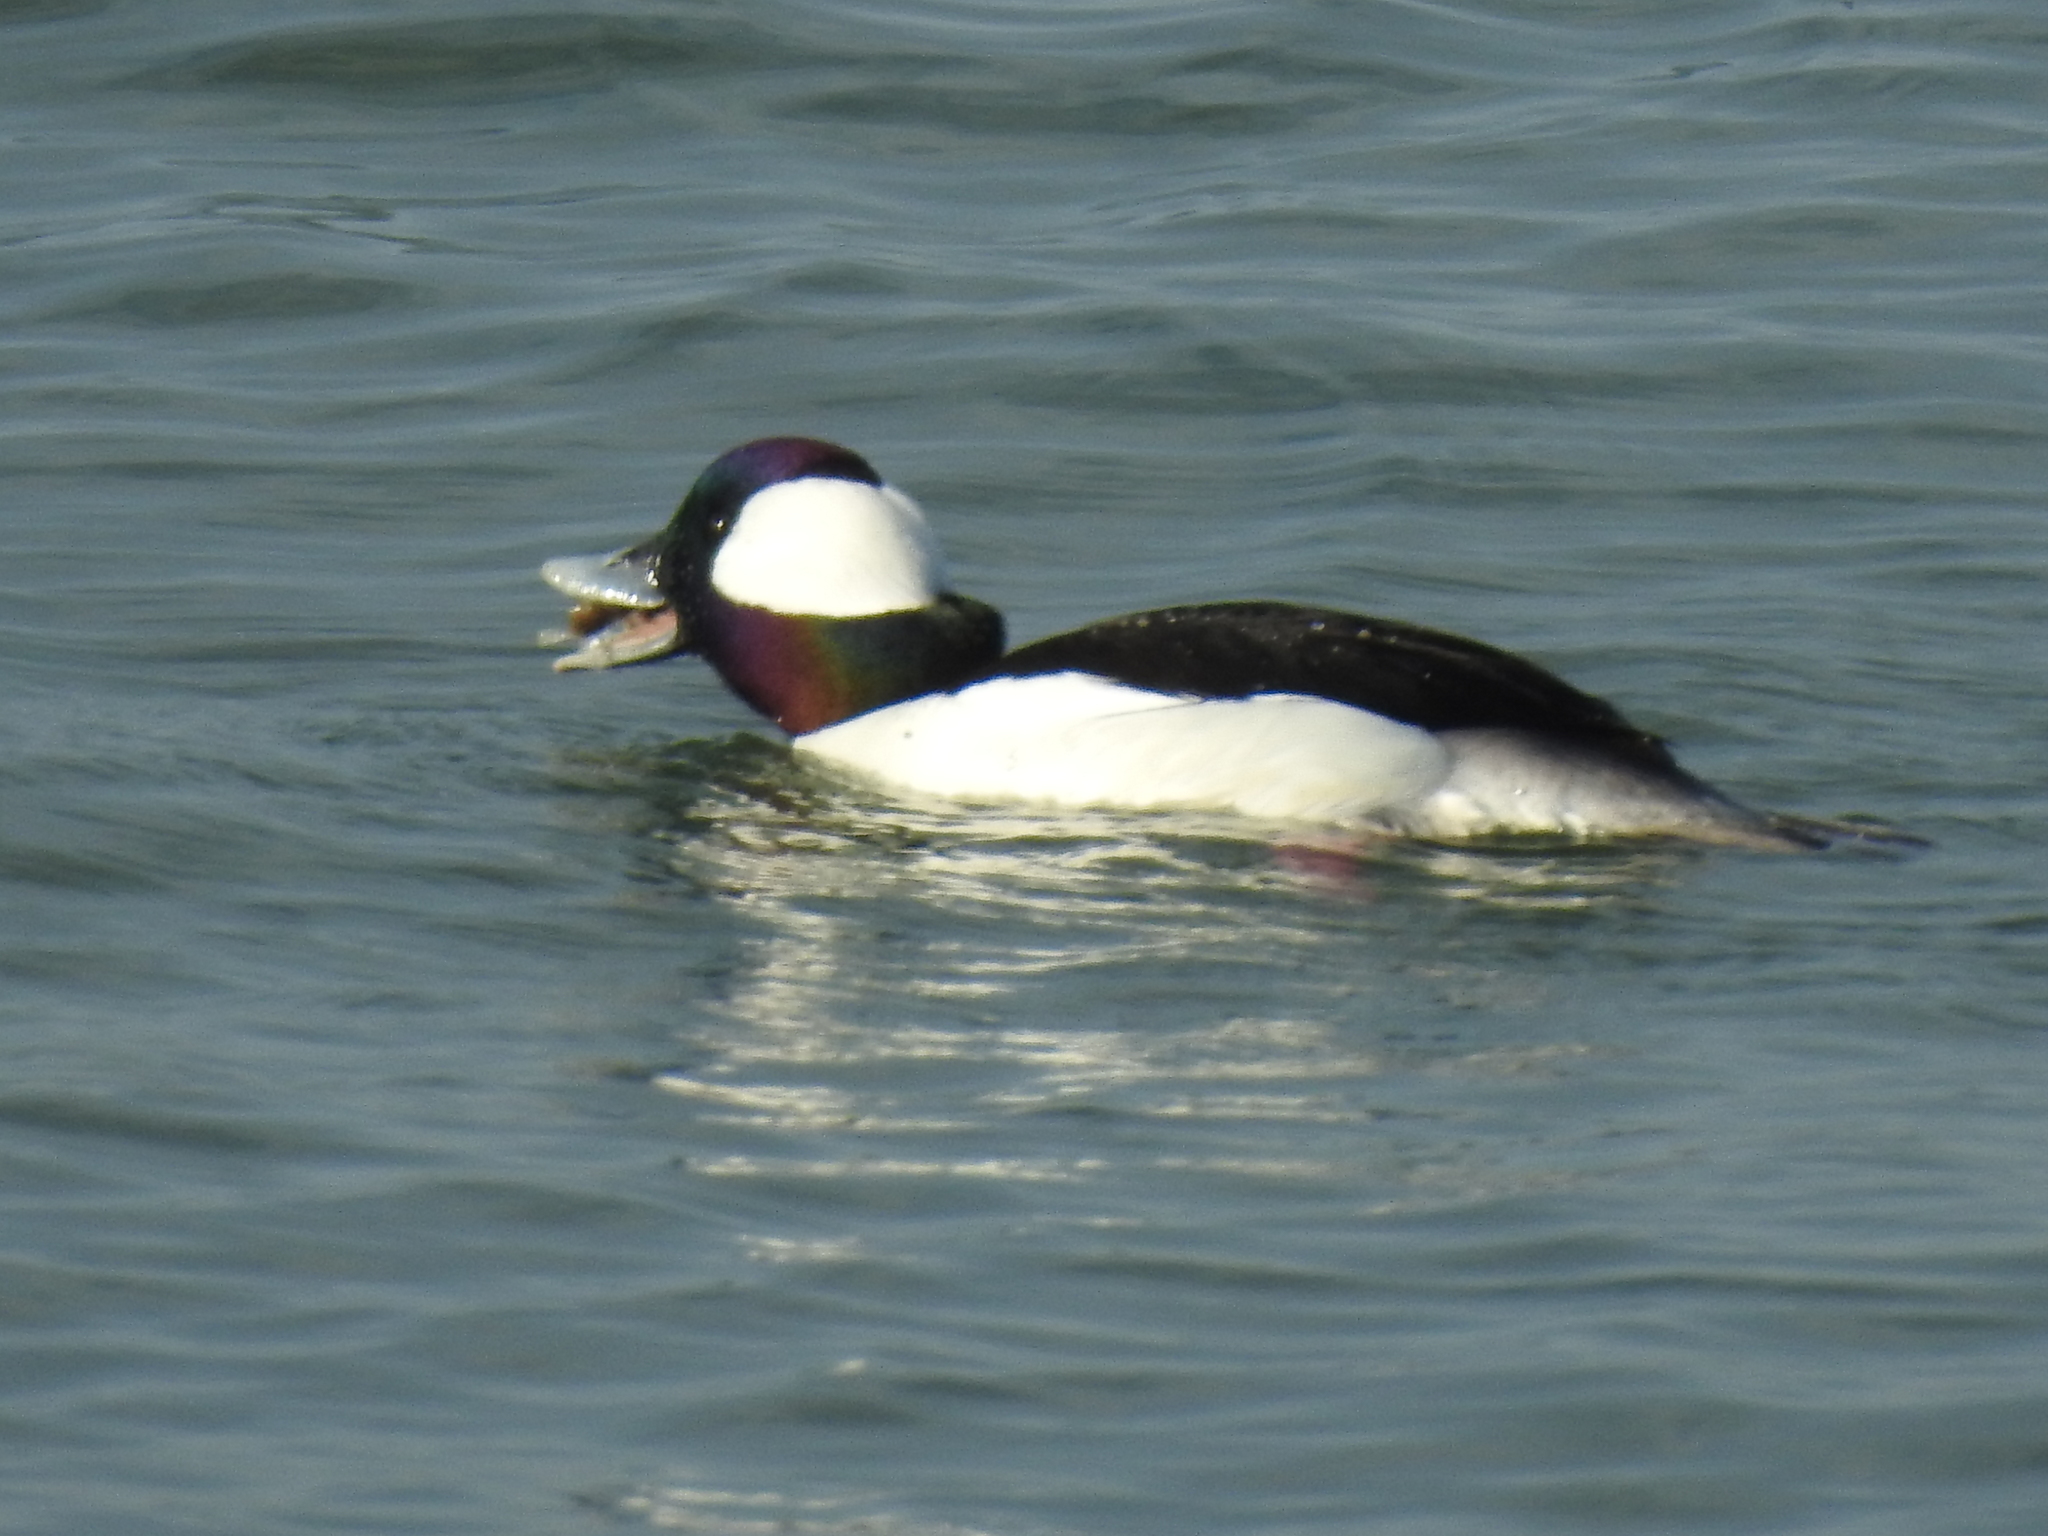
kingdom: Animalia
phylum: Chordata
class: Aves
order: Anseriformes
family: Anatidae
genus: Bucephala
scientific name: Bucephala albeola
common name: Bufflehead
